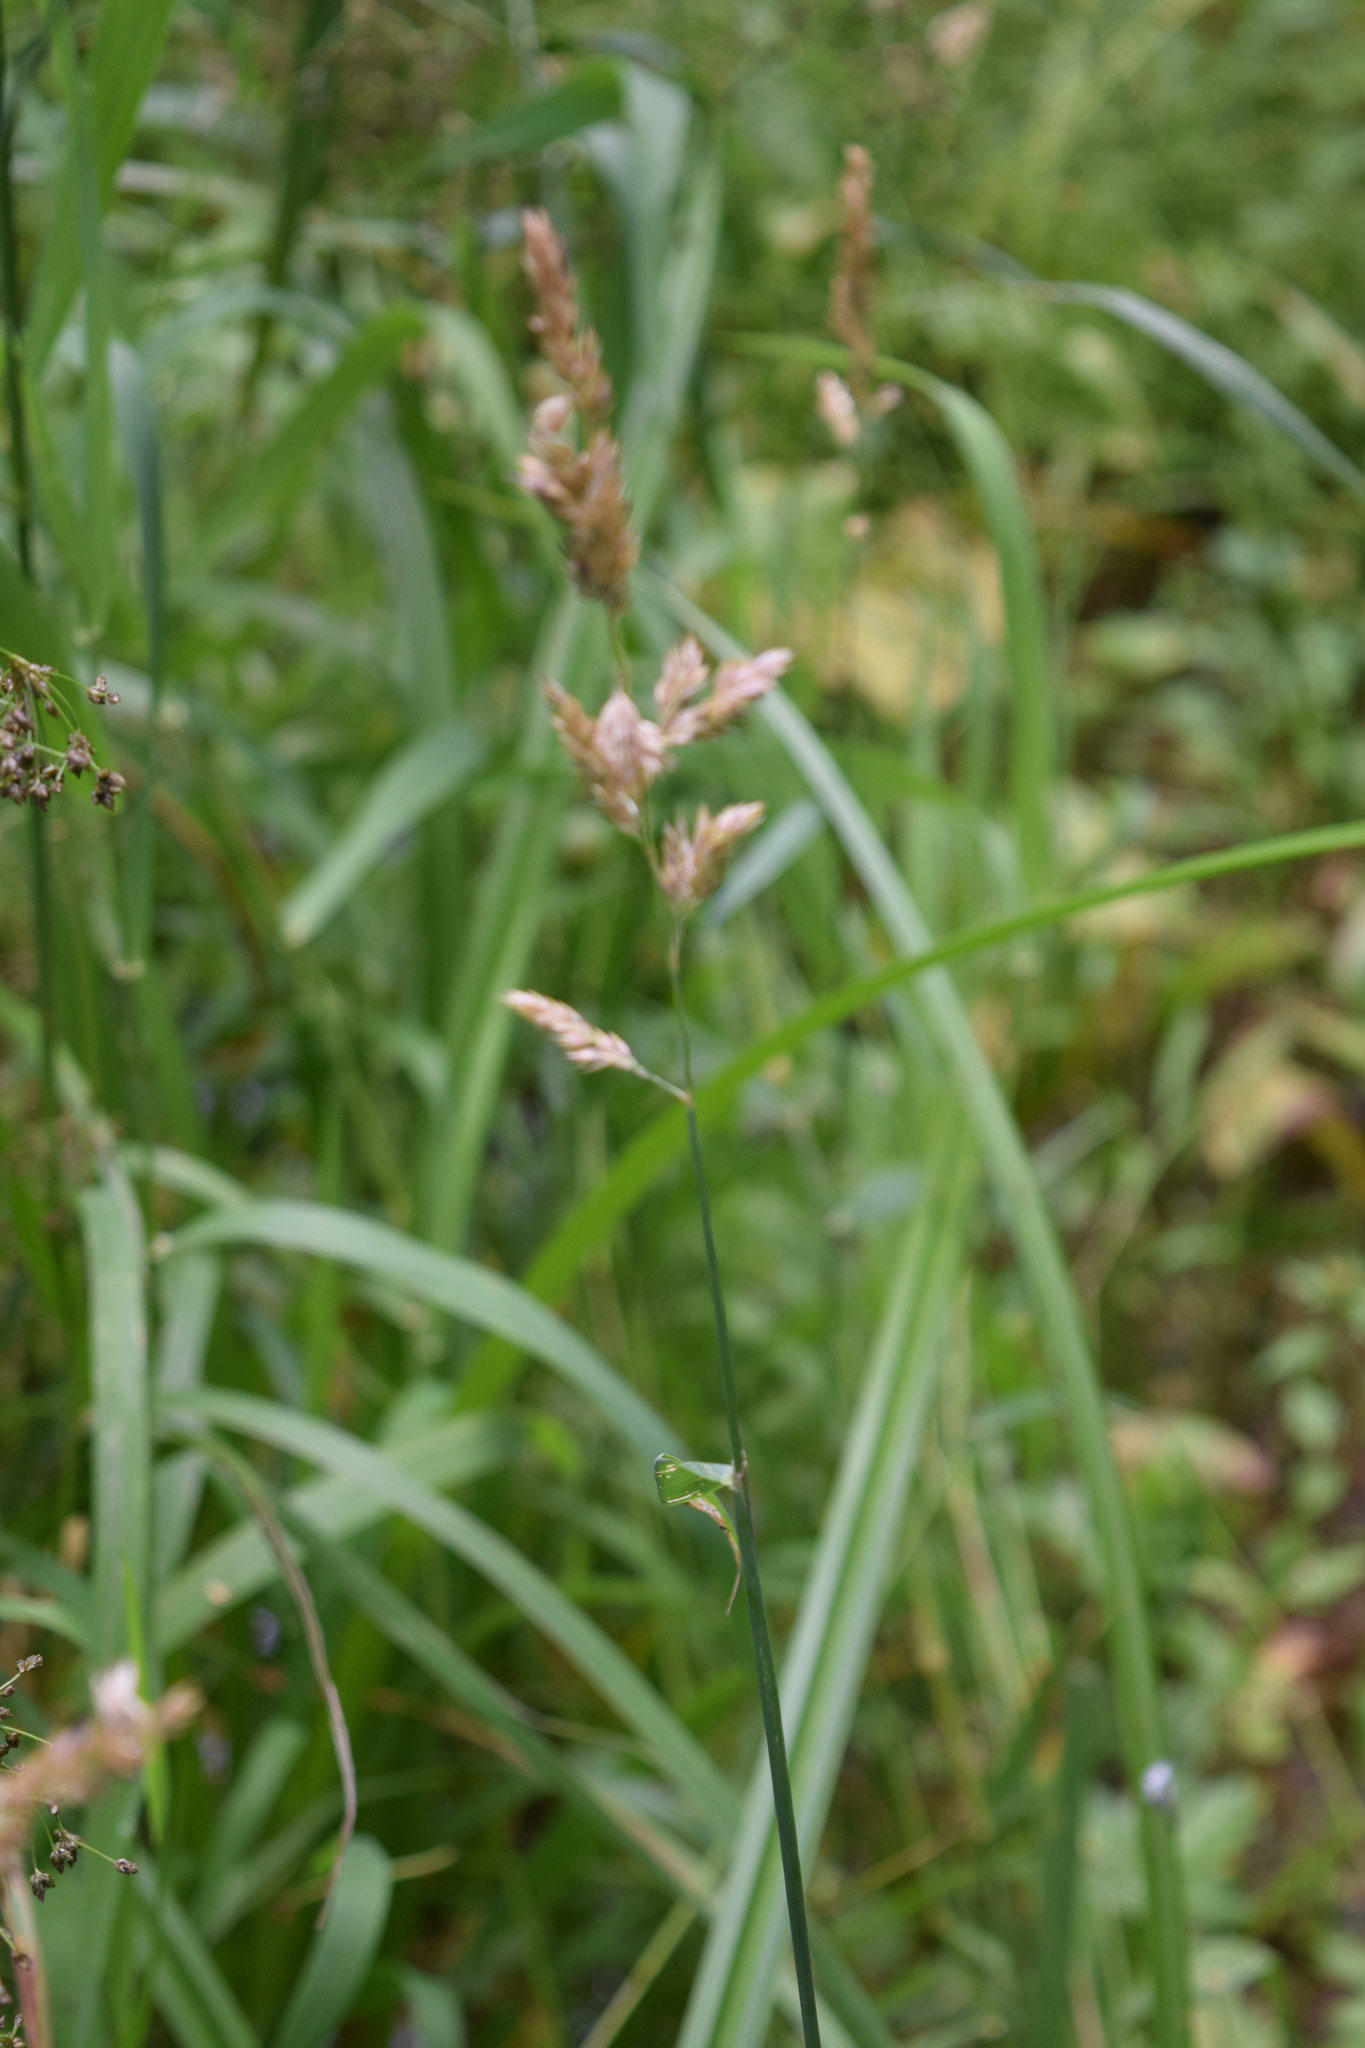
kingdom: Plantae
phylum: Tracheophyta
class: Liliopsida
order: Poales
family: Poaceae
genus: Dactylis
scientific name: Dactylis glomerata
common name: Orchardgrass
